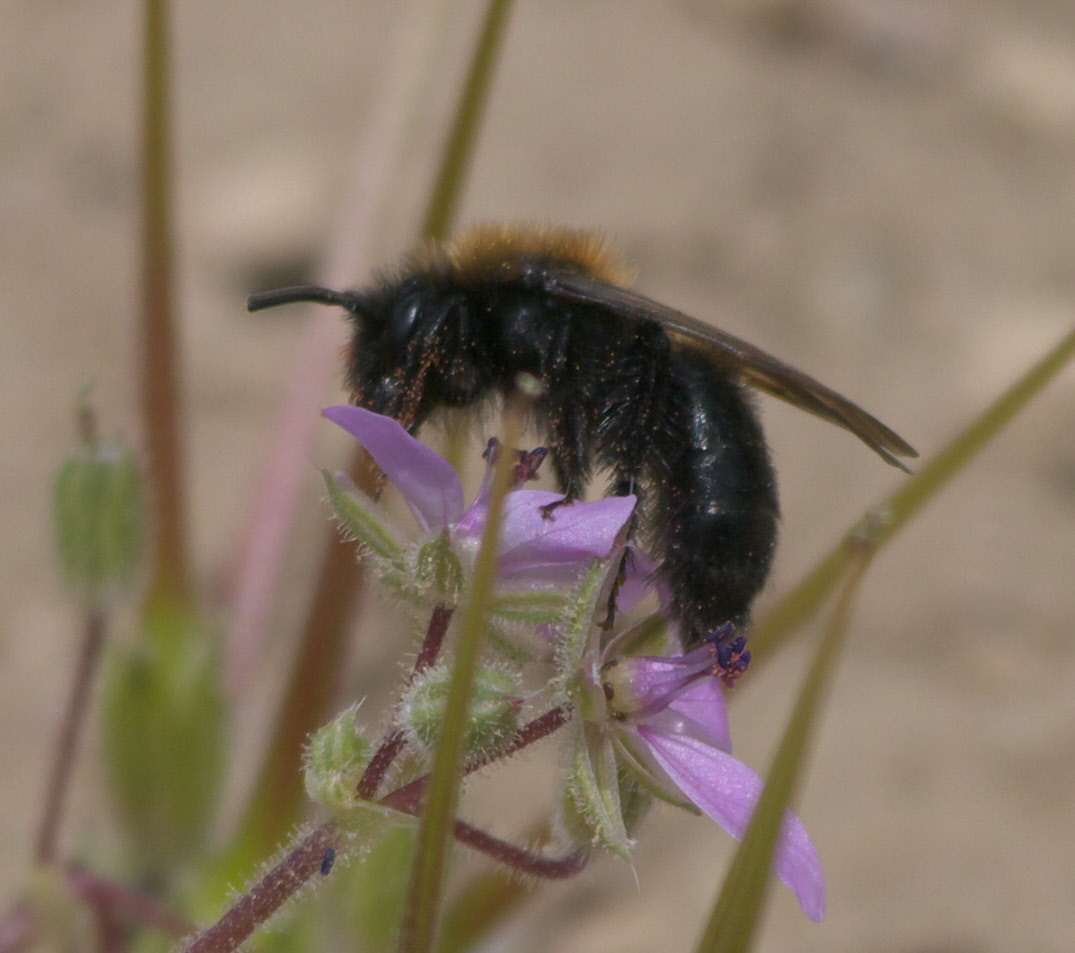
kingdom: Animalia
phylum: Arthropoda
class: Insecta
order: Hymenoptera
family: Andrenidae
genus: Andrena
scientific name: Andrena
